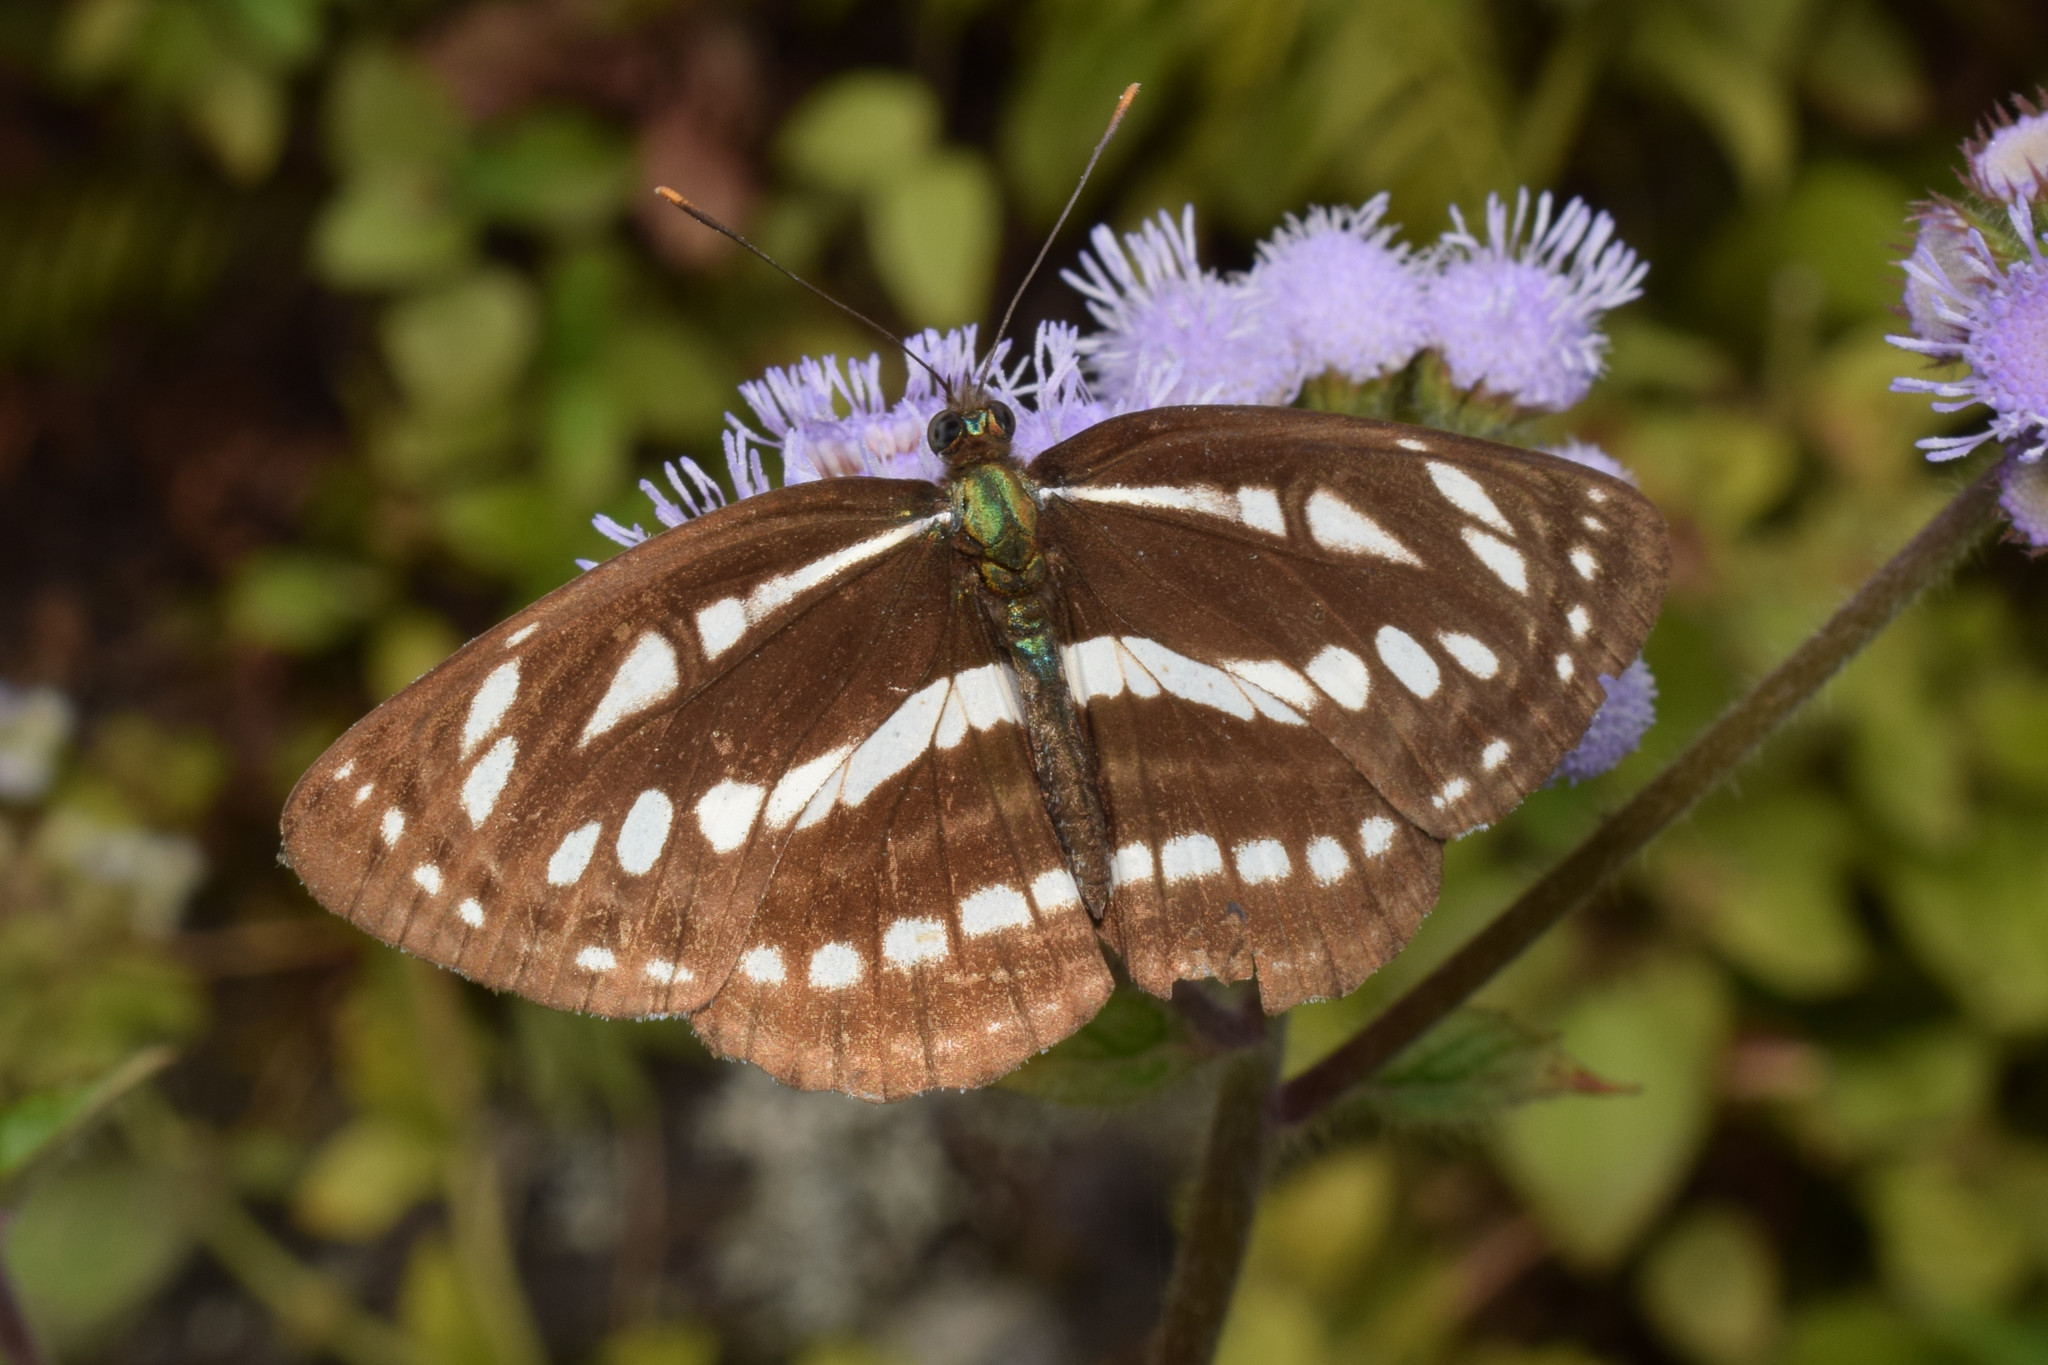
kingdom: Animalia
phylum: Arthropoda
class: Insecta
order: Lepidoptera
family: Nymphalidae
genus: Neptis
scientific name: Neptis hylas
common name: Common sailer
